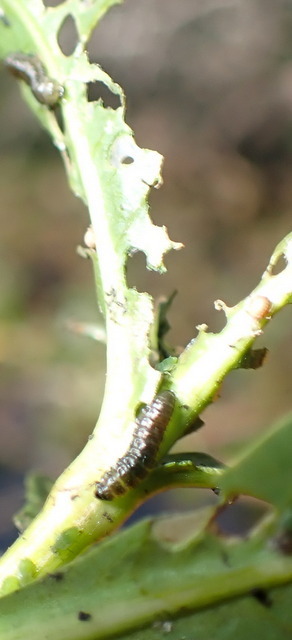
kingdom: Animalia
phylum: Arthropoda
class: Insecta
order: Coleoptera
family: Chrysomelidae
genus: Agasicles
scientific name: Agasicles hygrophila
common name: Alligatorweed flea beetle
